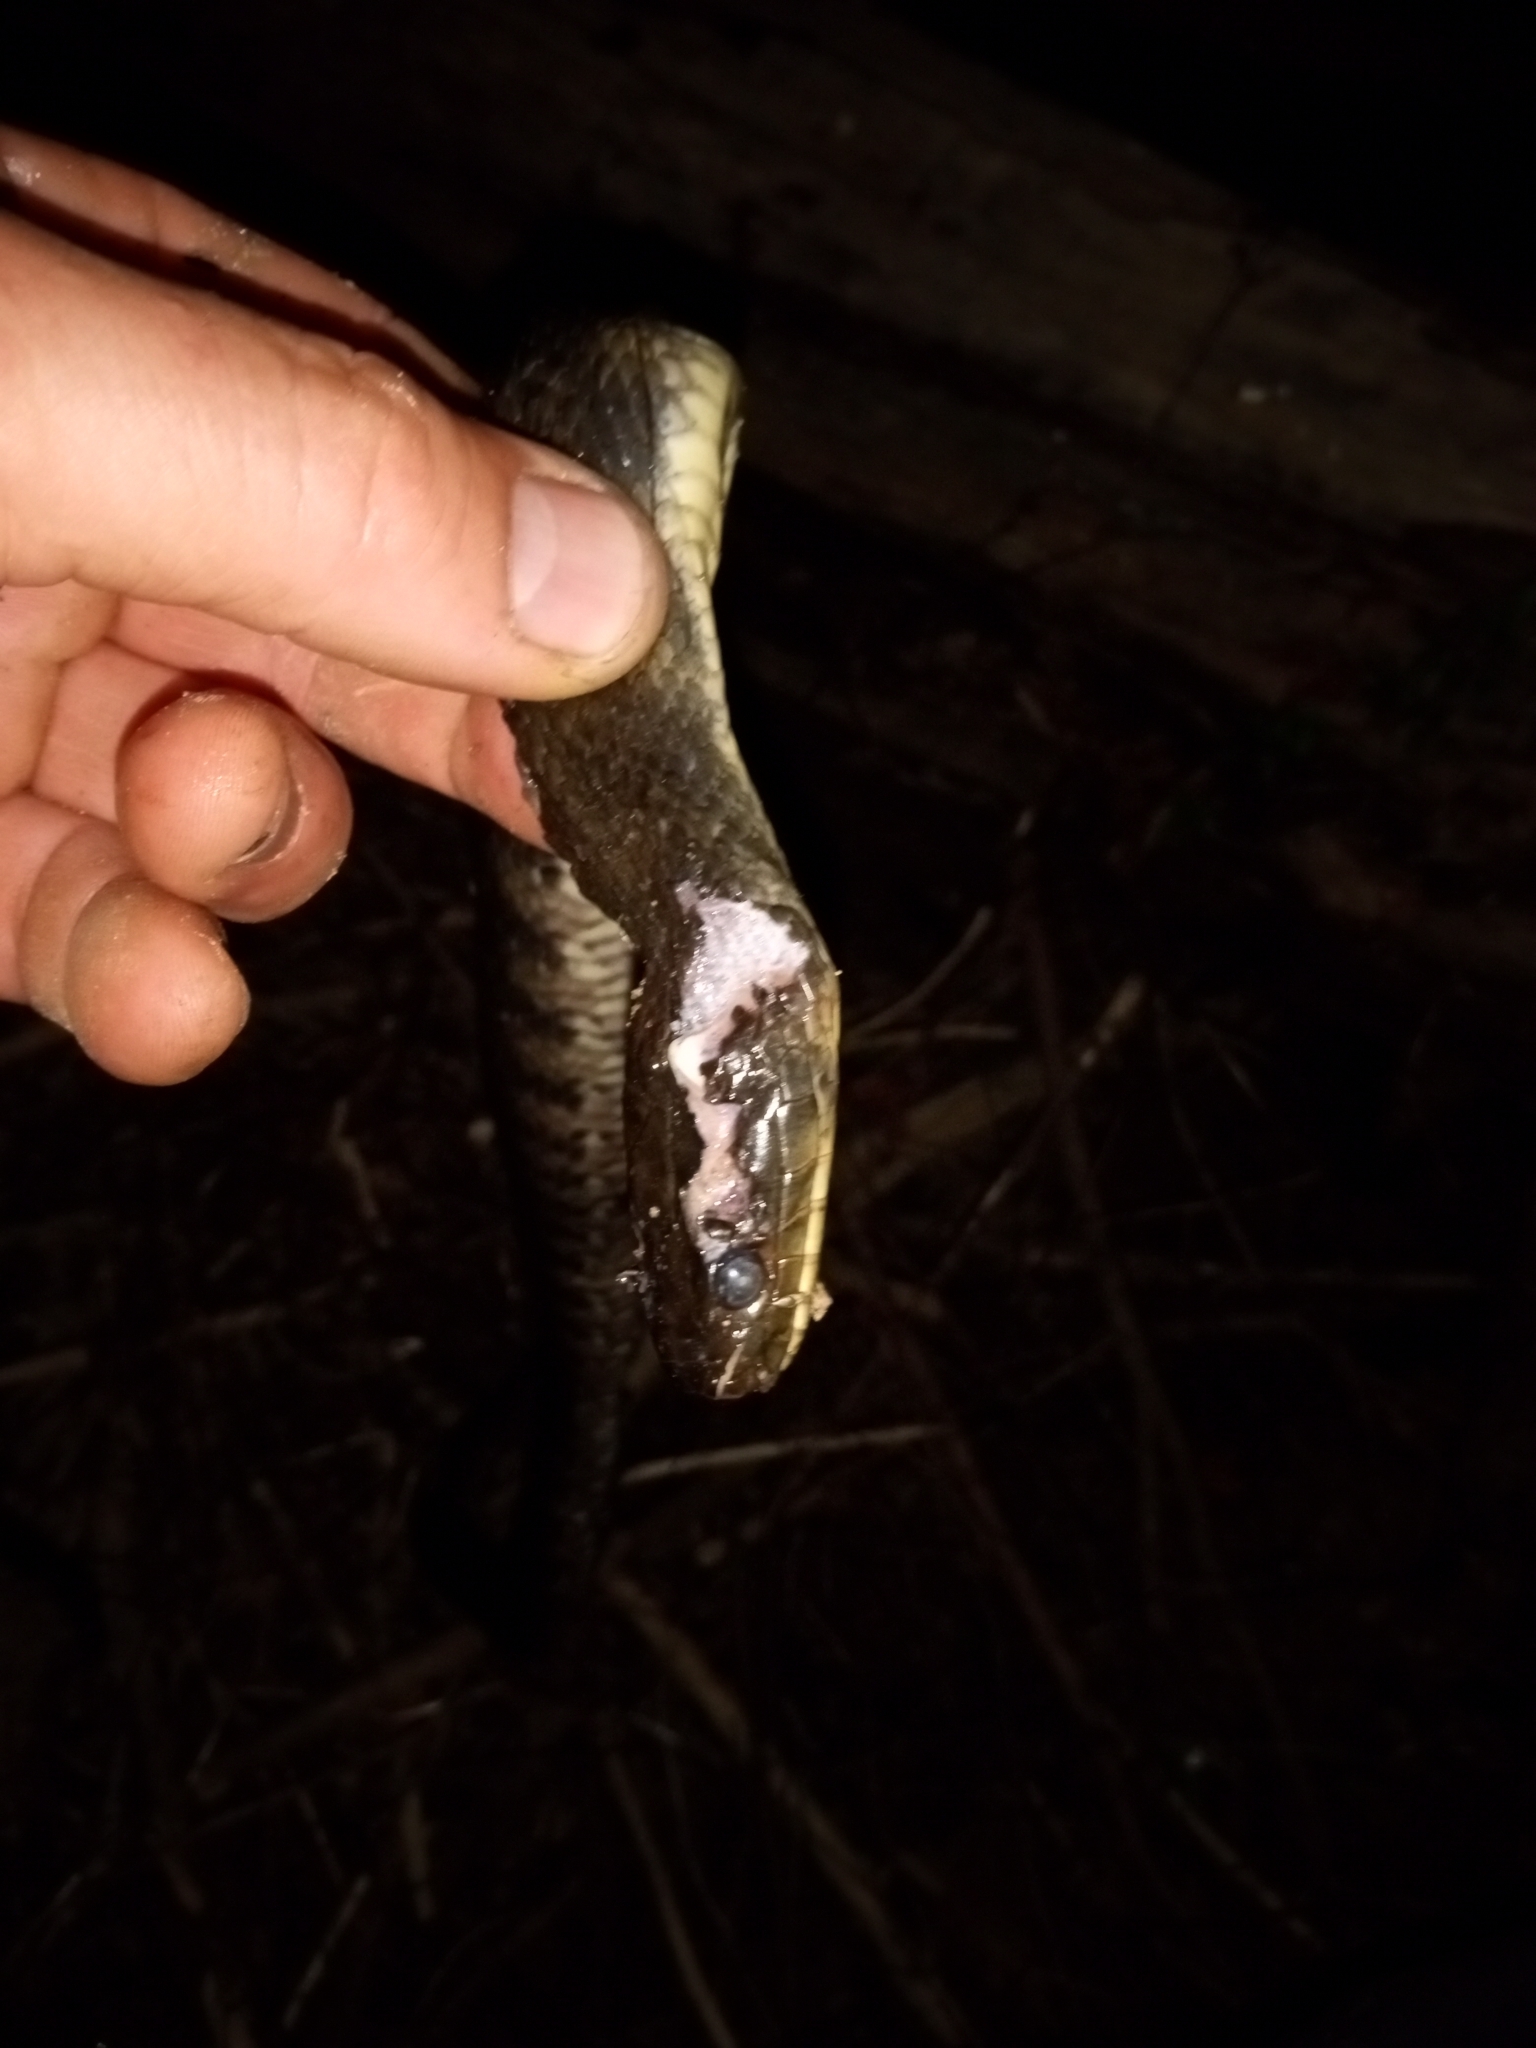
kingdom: Animalia
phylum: Chordata
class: Squamata
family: Colubridae
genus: Nerodia
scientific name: Nerodia cyclopion
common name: Mississippi green water snake
